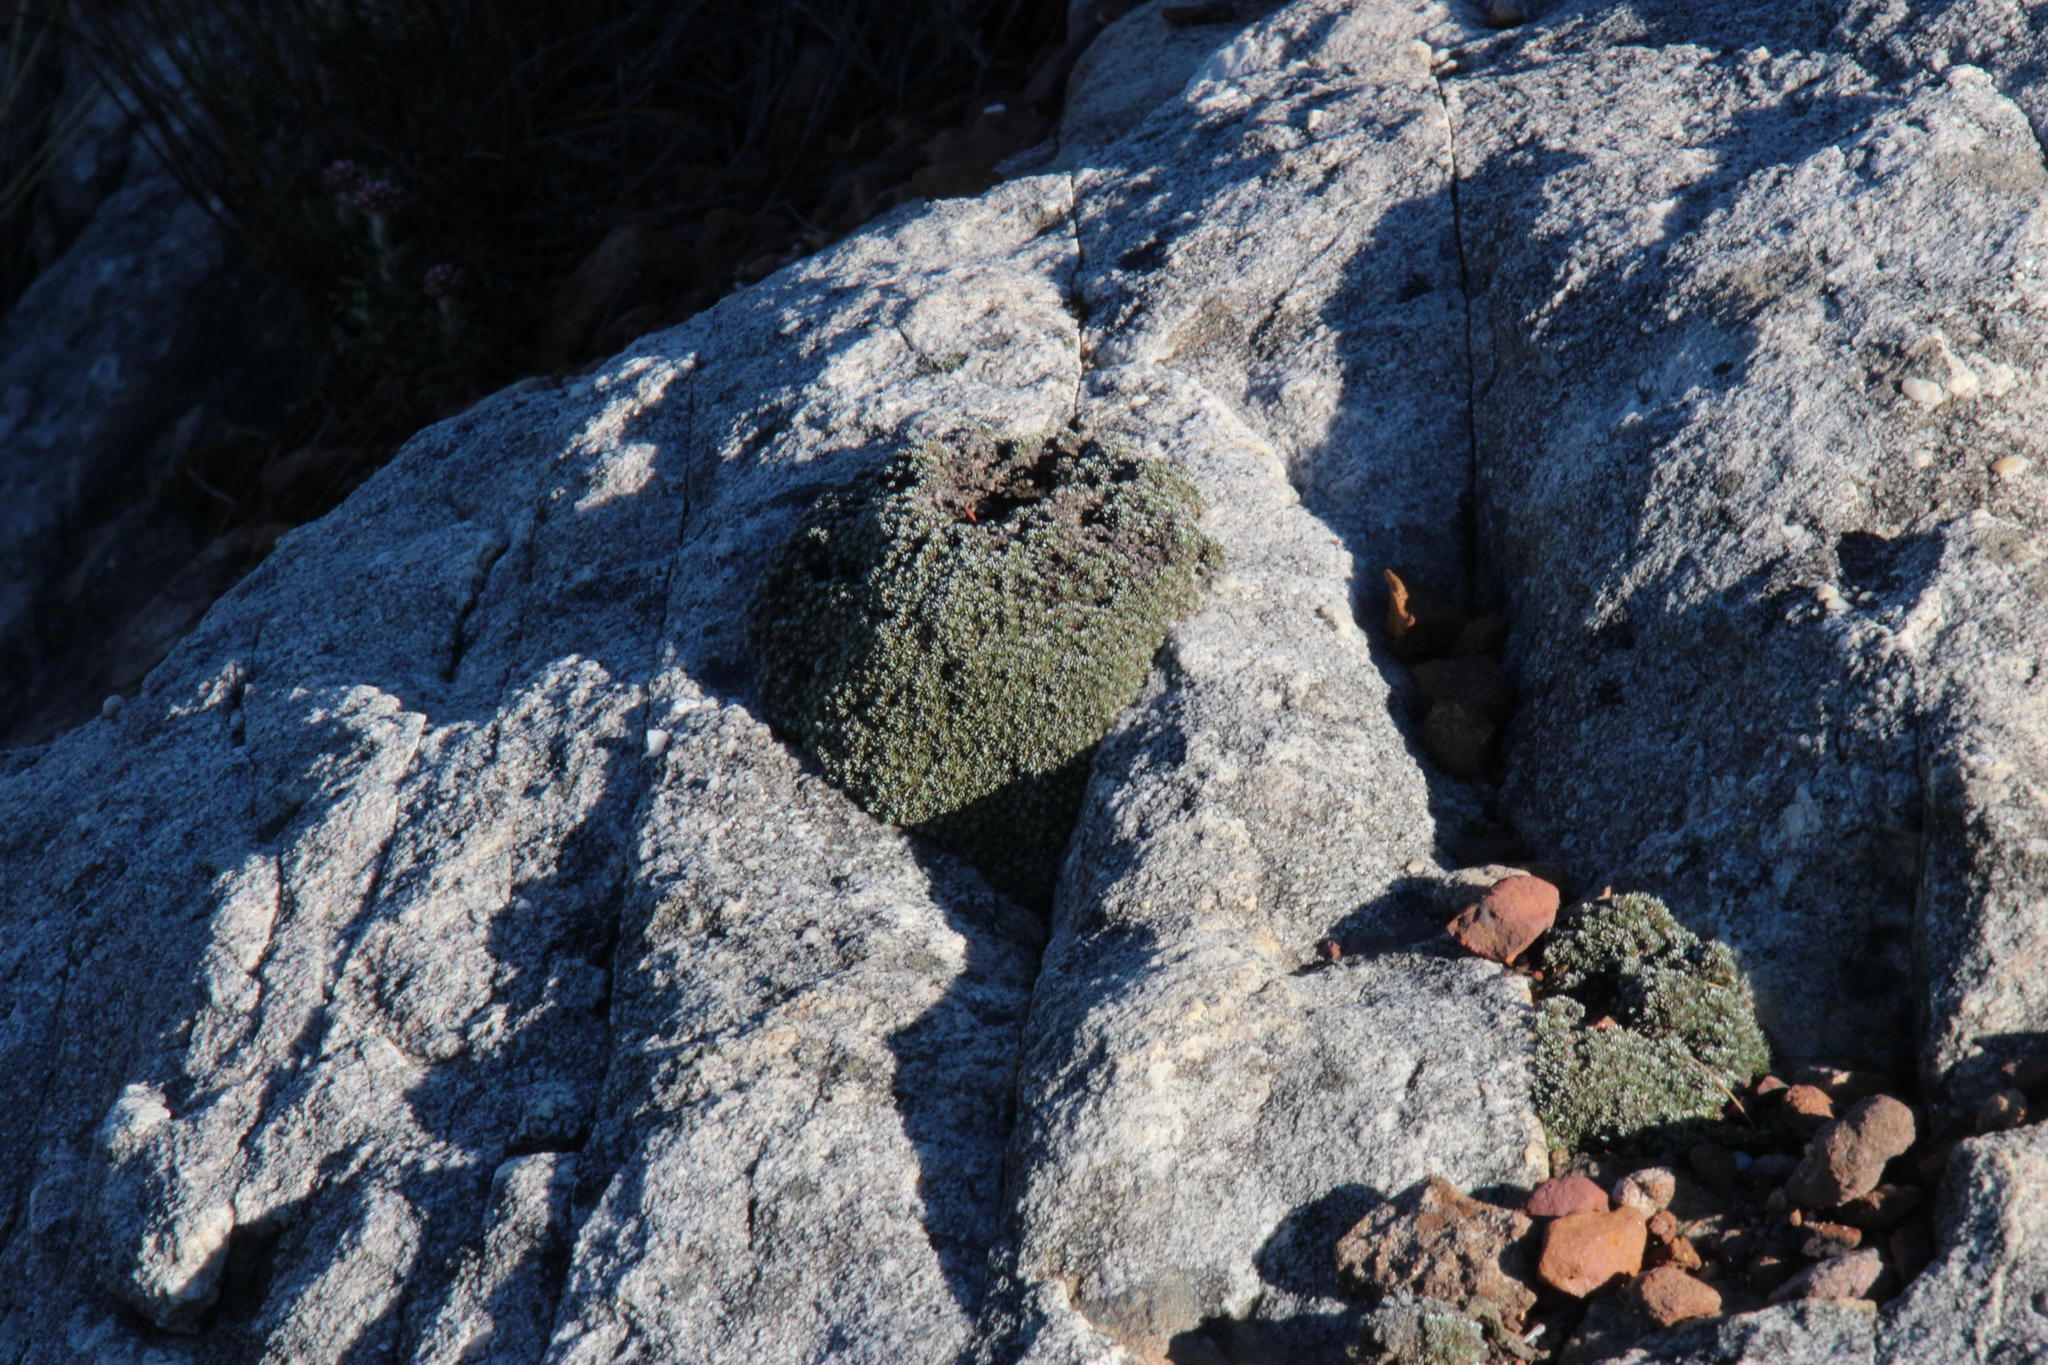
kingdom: Plantae
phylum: Tracheophyta
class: Magnoliopsida
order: Asterales
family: Asteraceae
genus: Muscosomorphe
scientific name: Muscosomorphe aretioides
